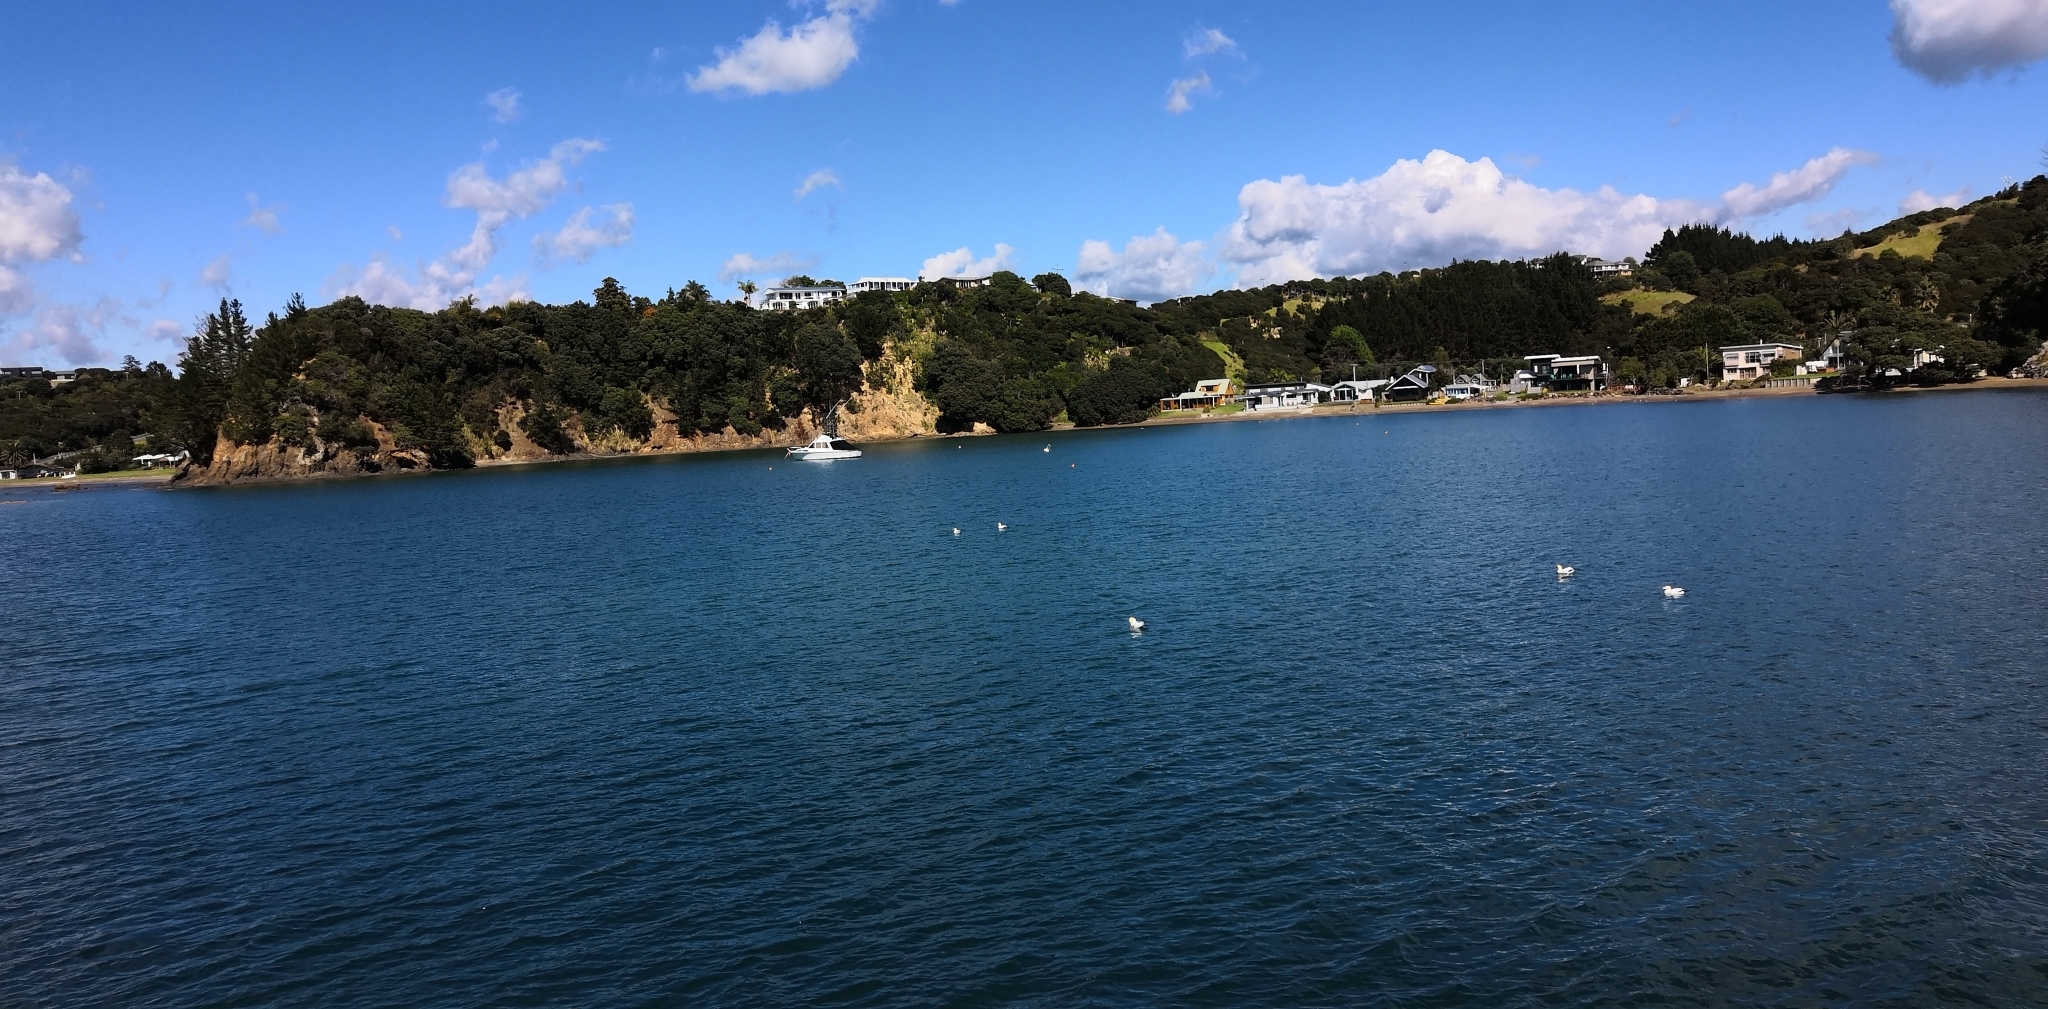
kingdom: Animalia
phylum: Chordata
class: Aves
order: Suliformes
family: Sulidae
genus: Morus
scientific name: Morus serrator
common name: Australasian gannet
